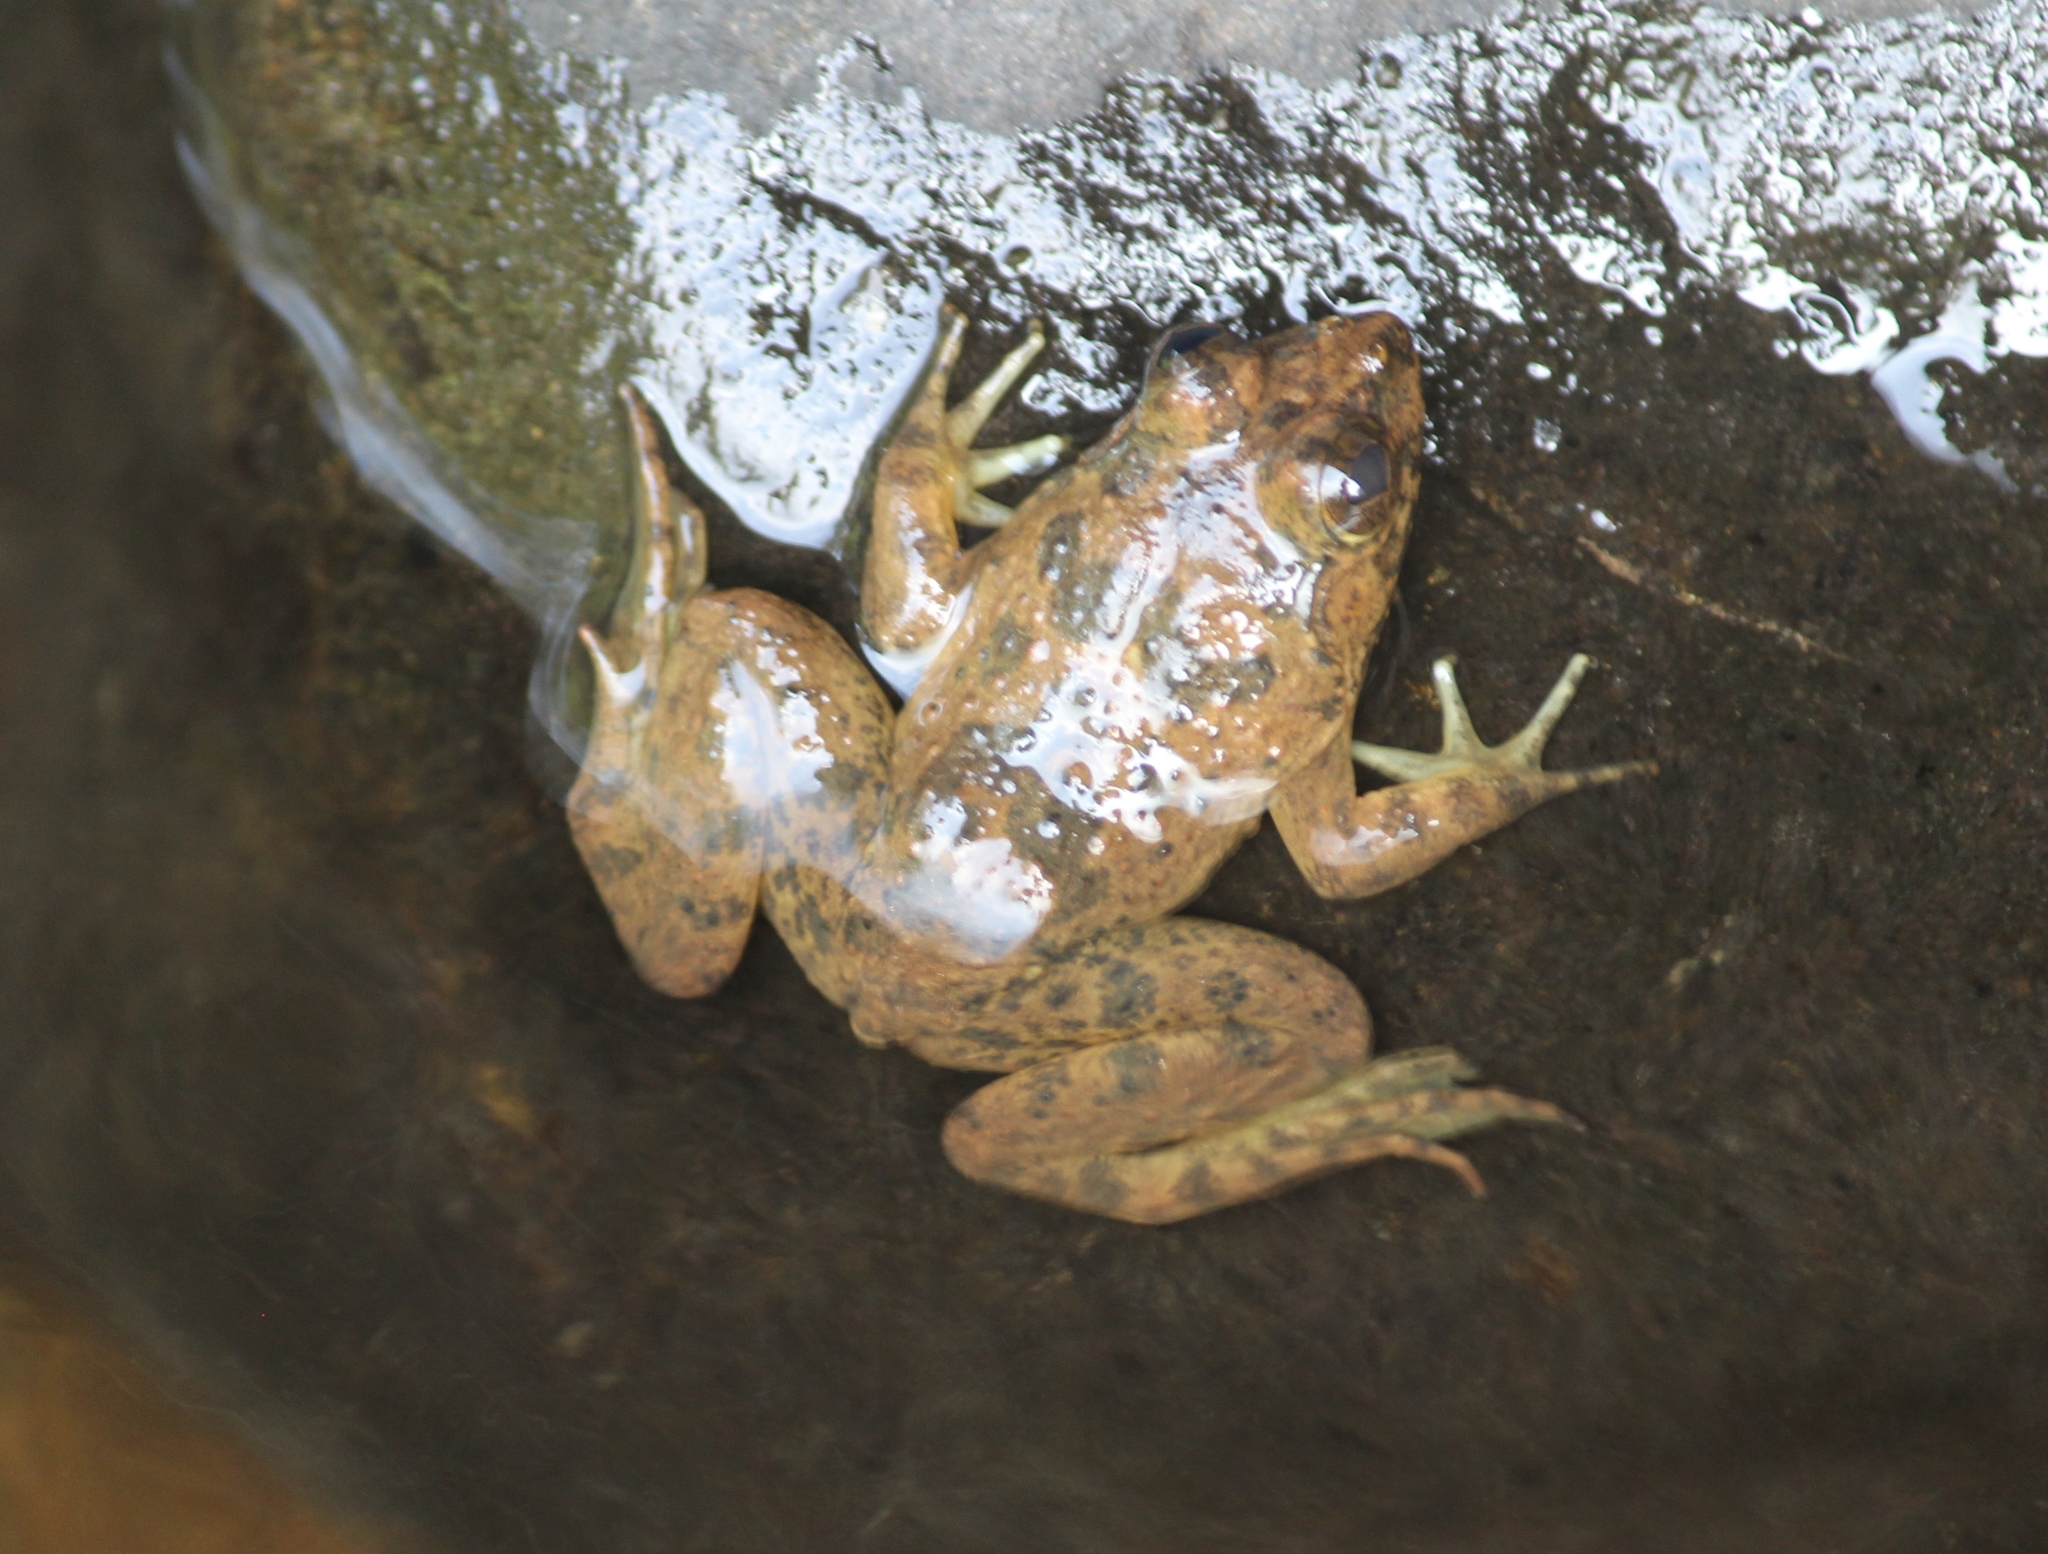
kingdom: Animalia
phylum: Chordata
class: Amphibia
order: Anura
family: Dicroglossidae
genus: Euphlyctis
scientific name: Euphlyctis cyanophlyctis
